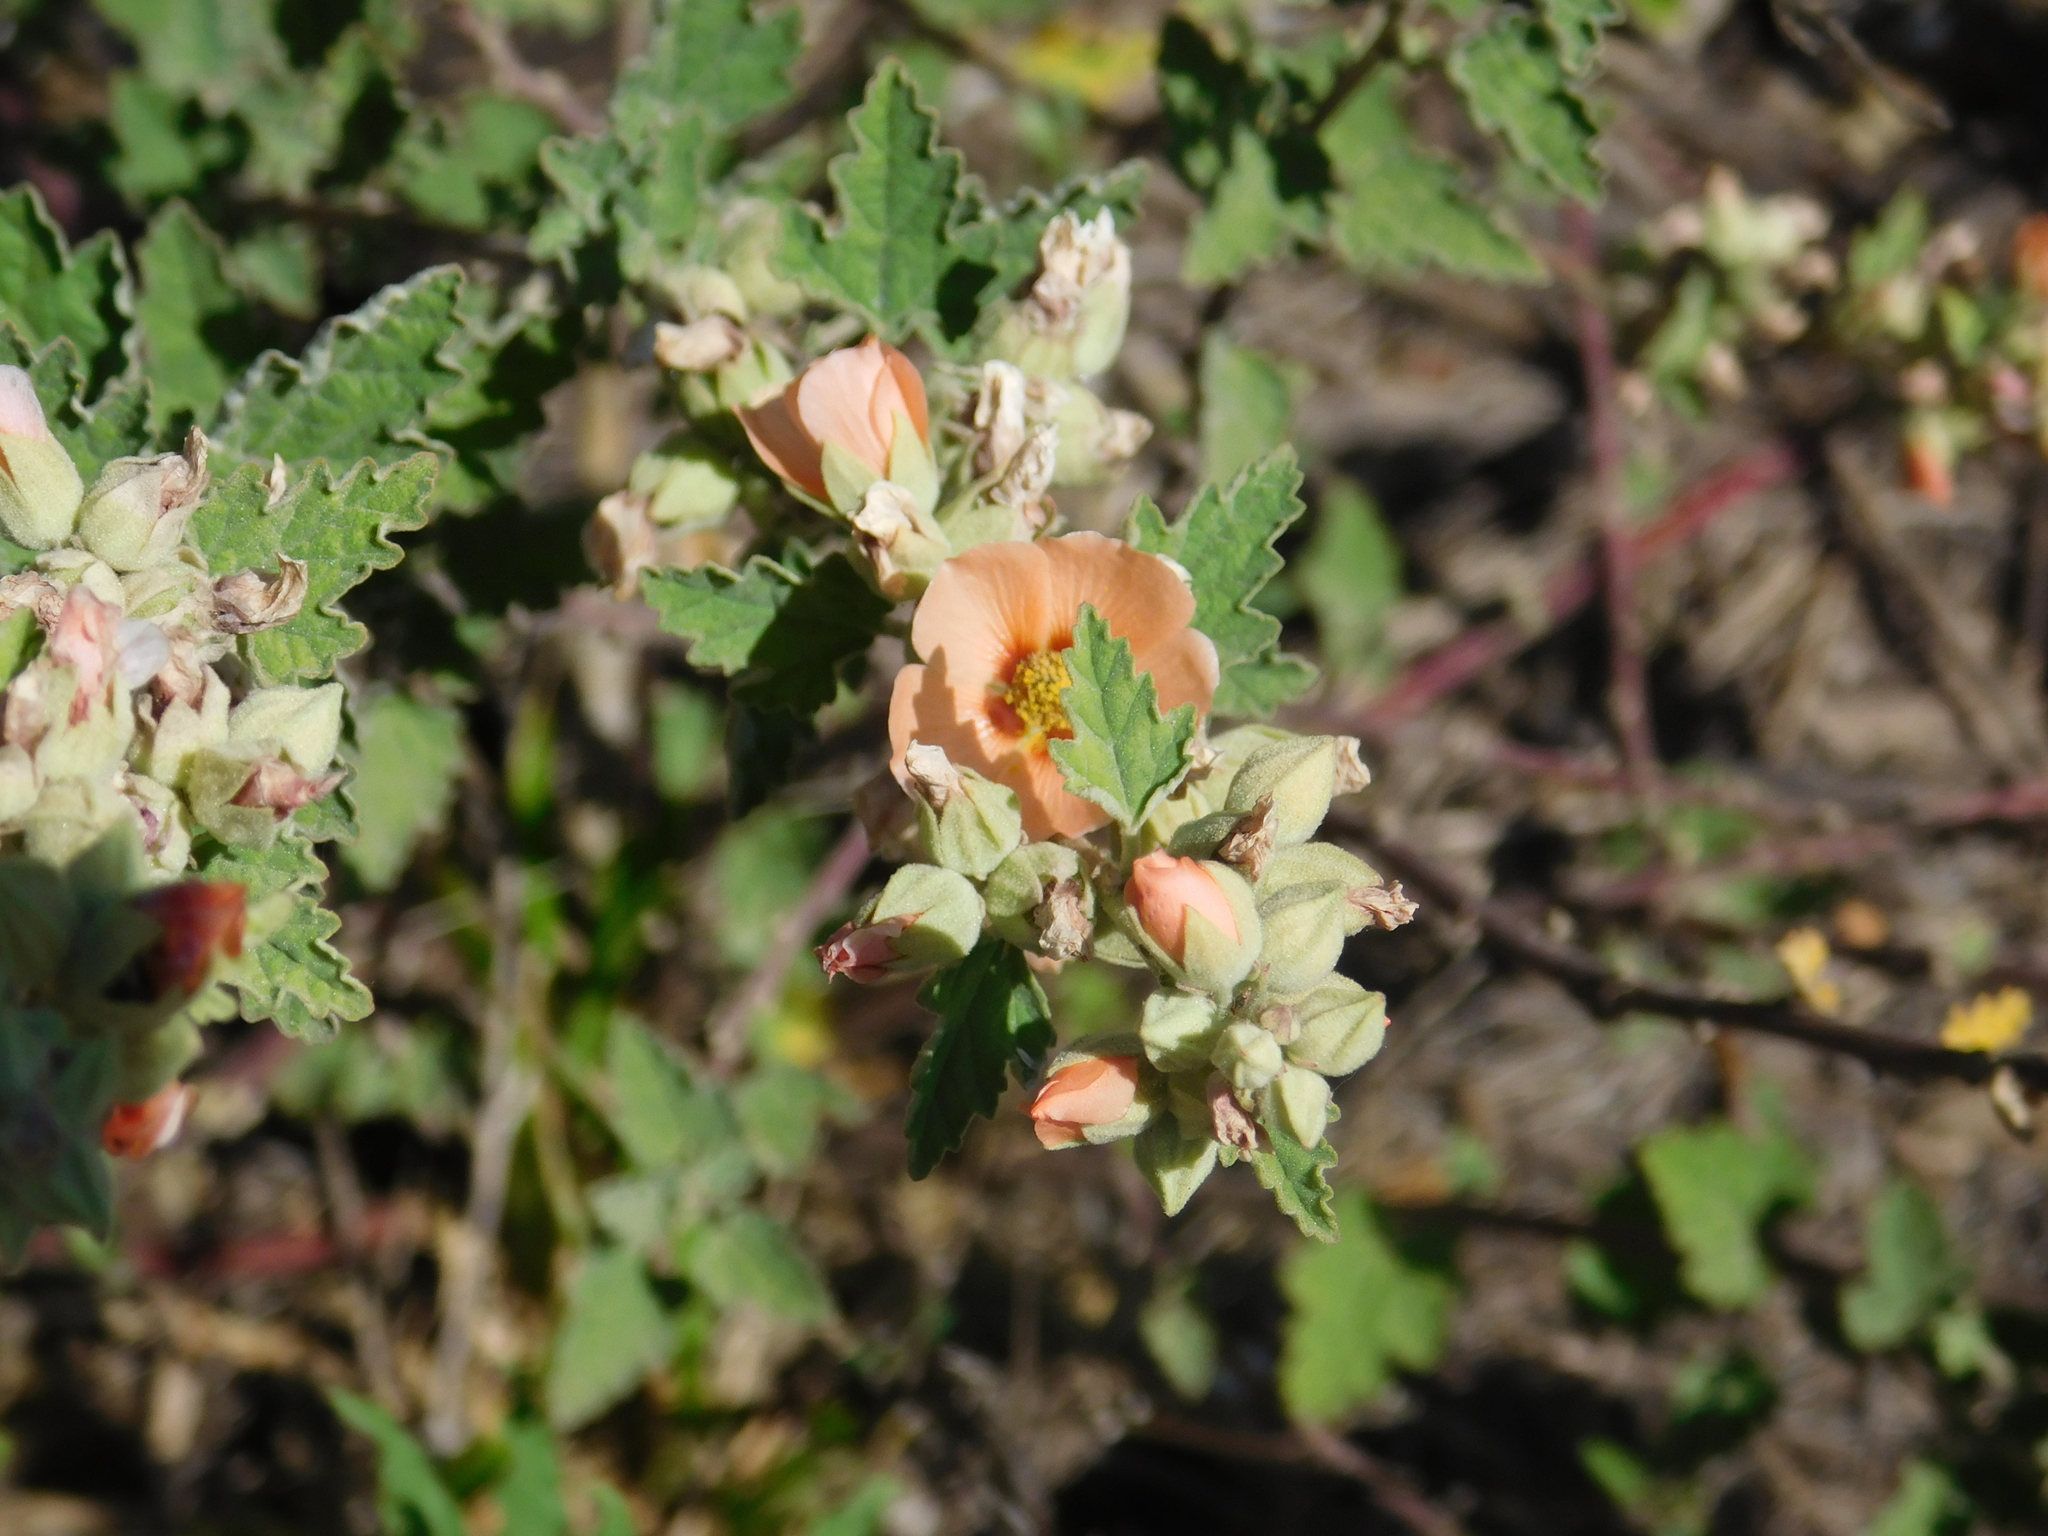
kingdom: Plantae
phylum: Tracheophyta
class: Magnoliopsida
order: Malvales
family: Malvaceae
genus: Sphaeralcea
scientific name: Sphaeralcea bonariensis
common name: Latin globemallow
